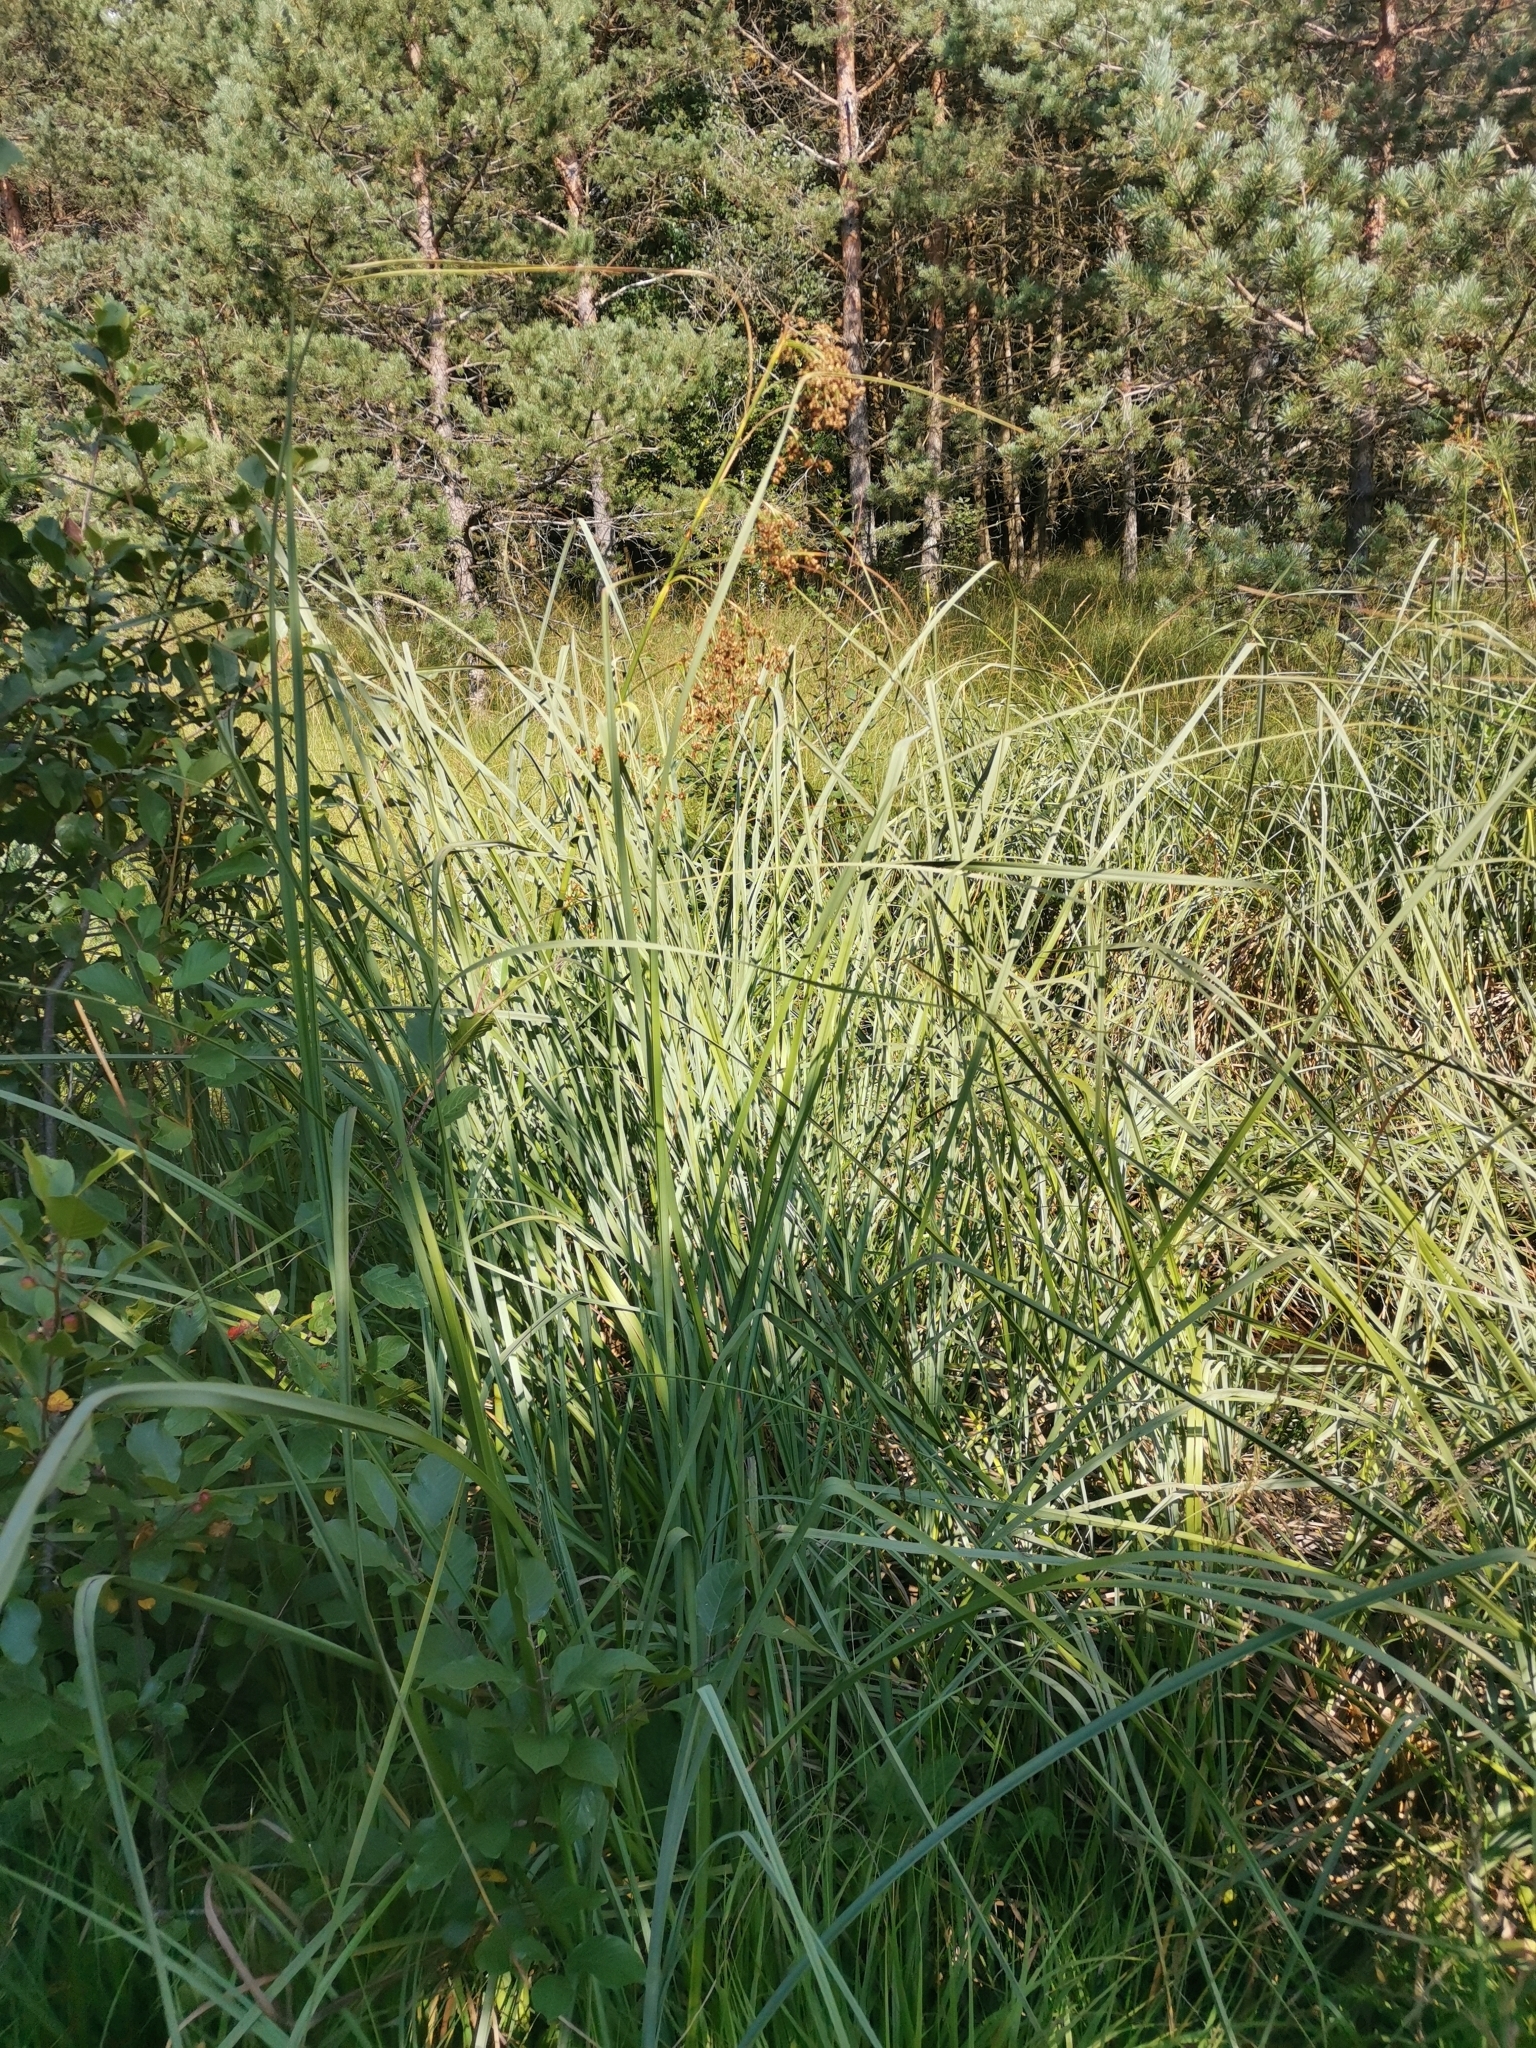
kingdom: Plantae
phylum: Tracheophyta
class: Liliopsida
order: Poales
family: Cyperaceae
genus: Cladium
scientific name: Cladium mariscus
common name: Great fen-sedge
